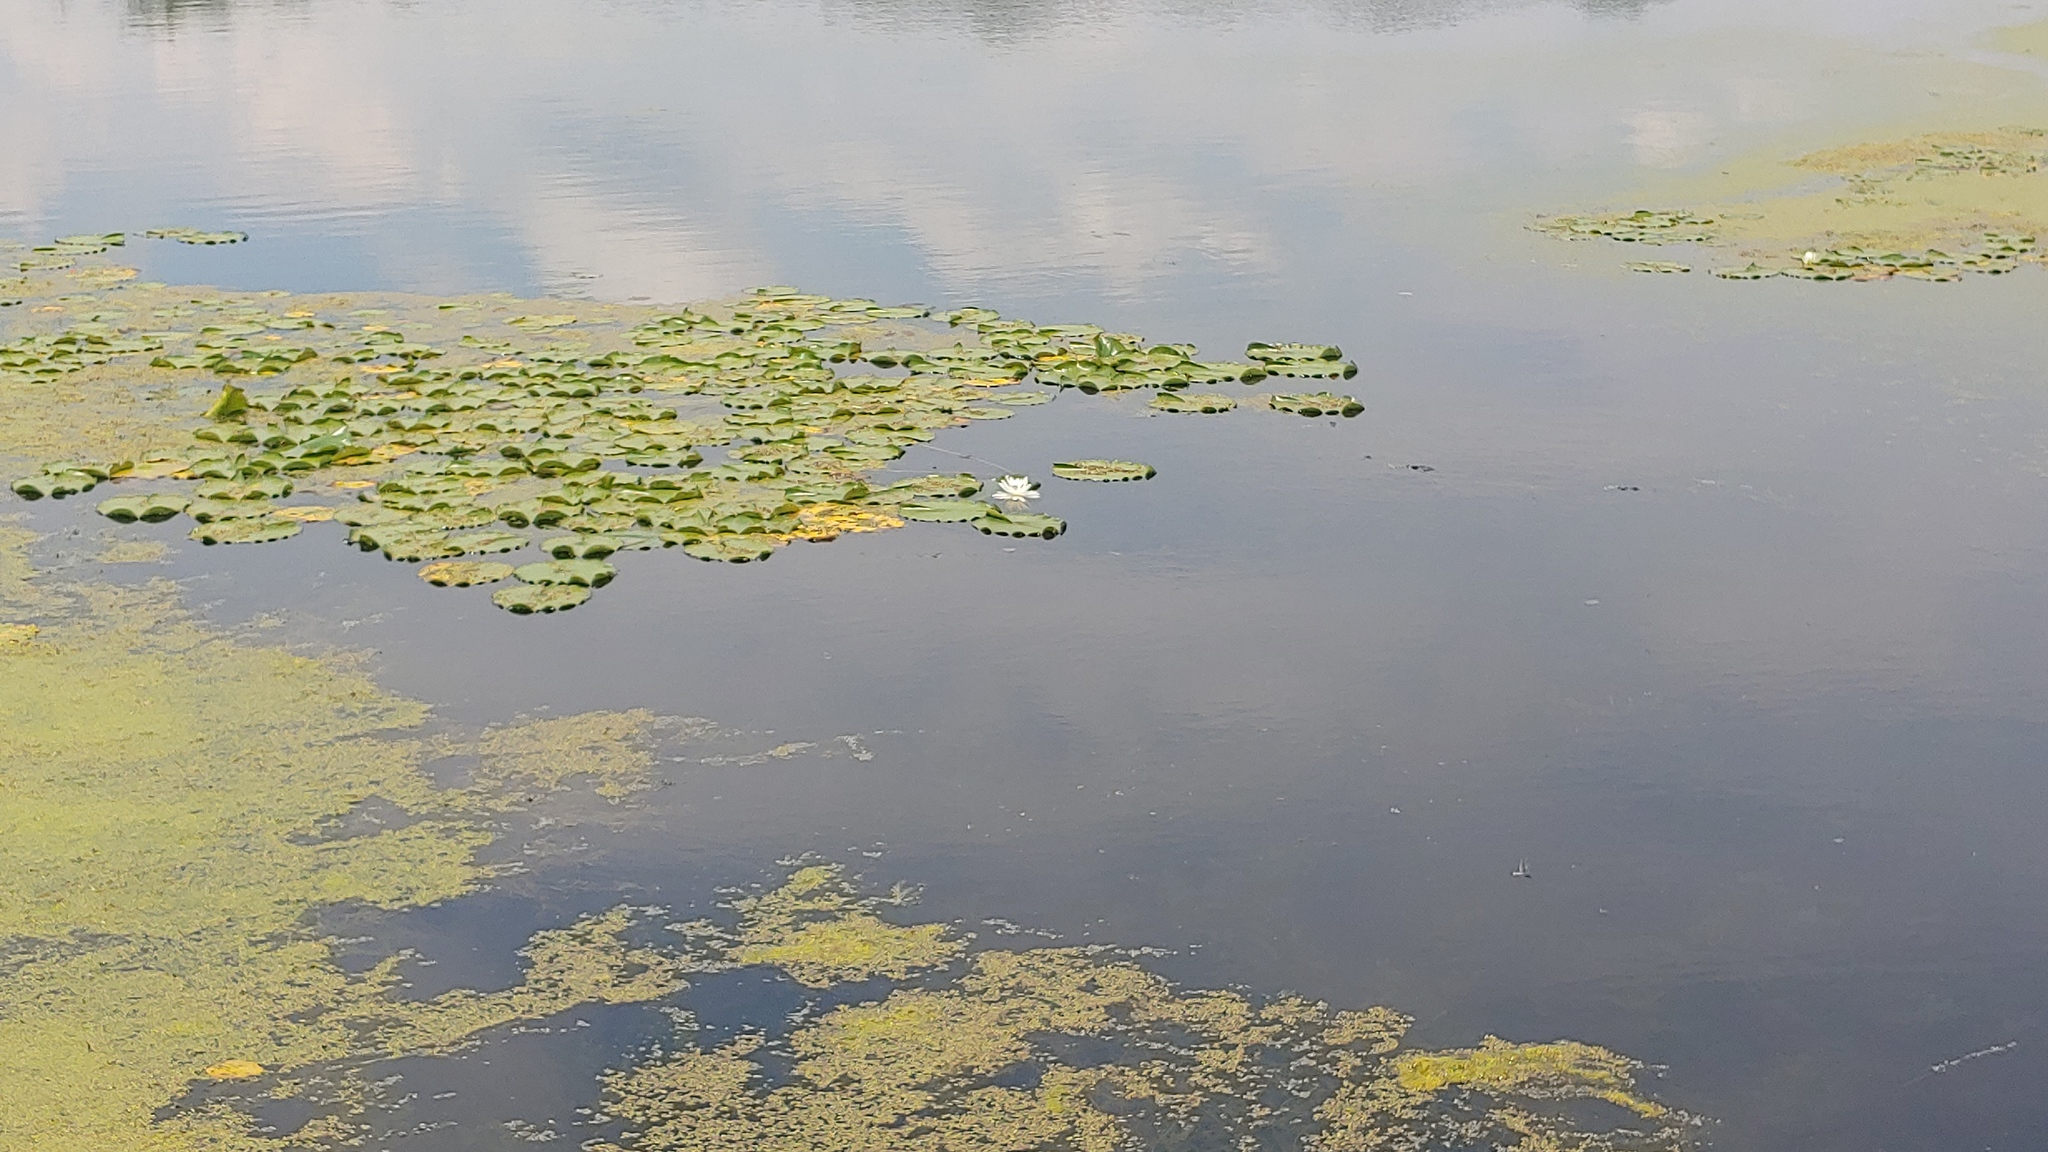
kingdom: Plantae
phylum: Tracheophyta
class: Magnoliopsida
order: Nymphaeales
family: Nymphaeaceae
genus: Nymphaea
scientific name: Nymphaea odorata
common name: Fragrant water-lily
